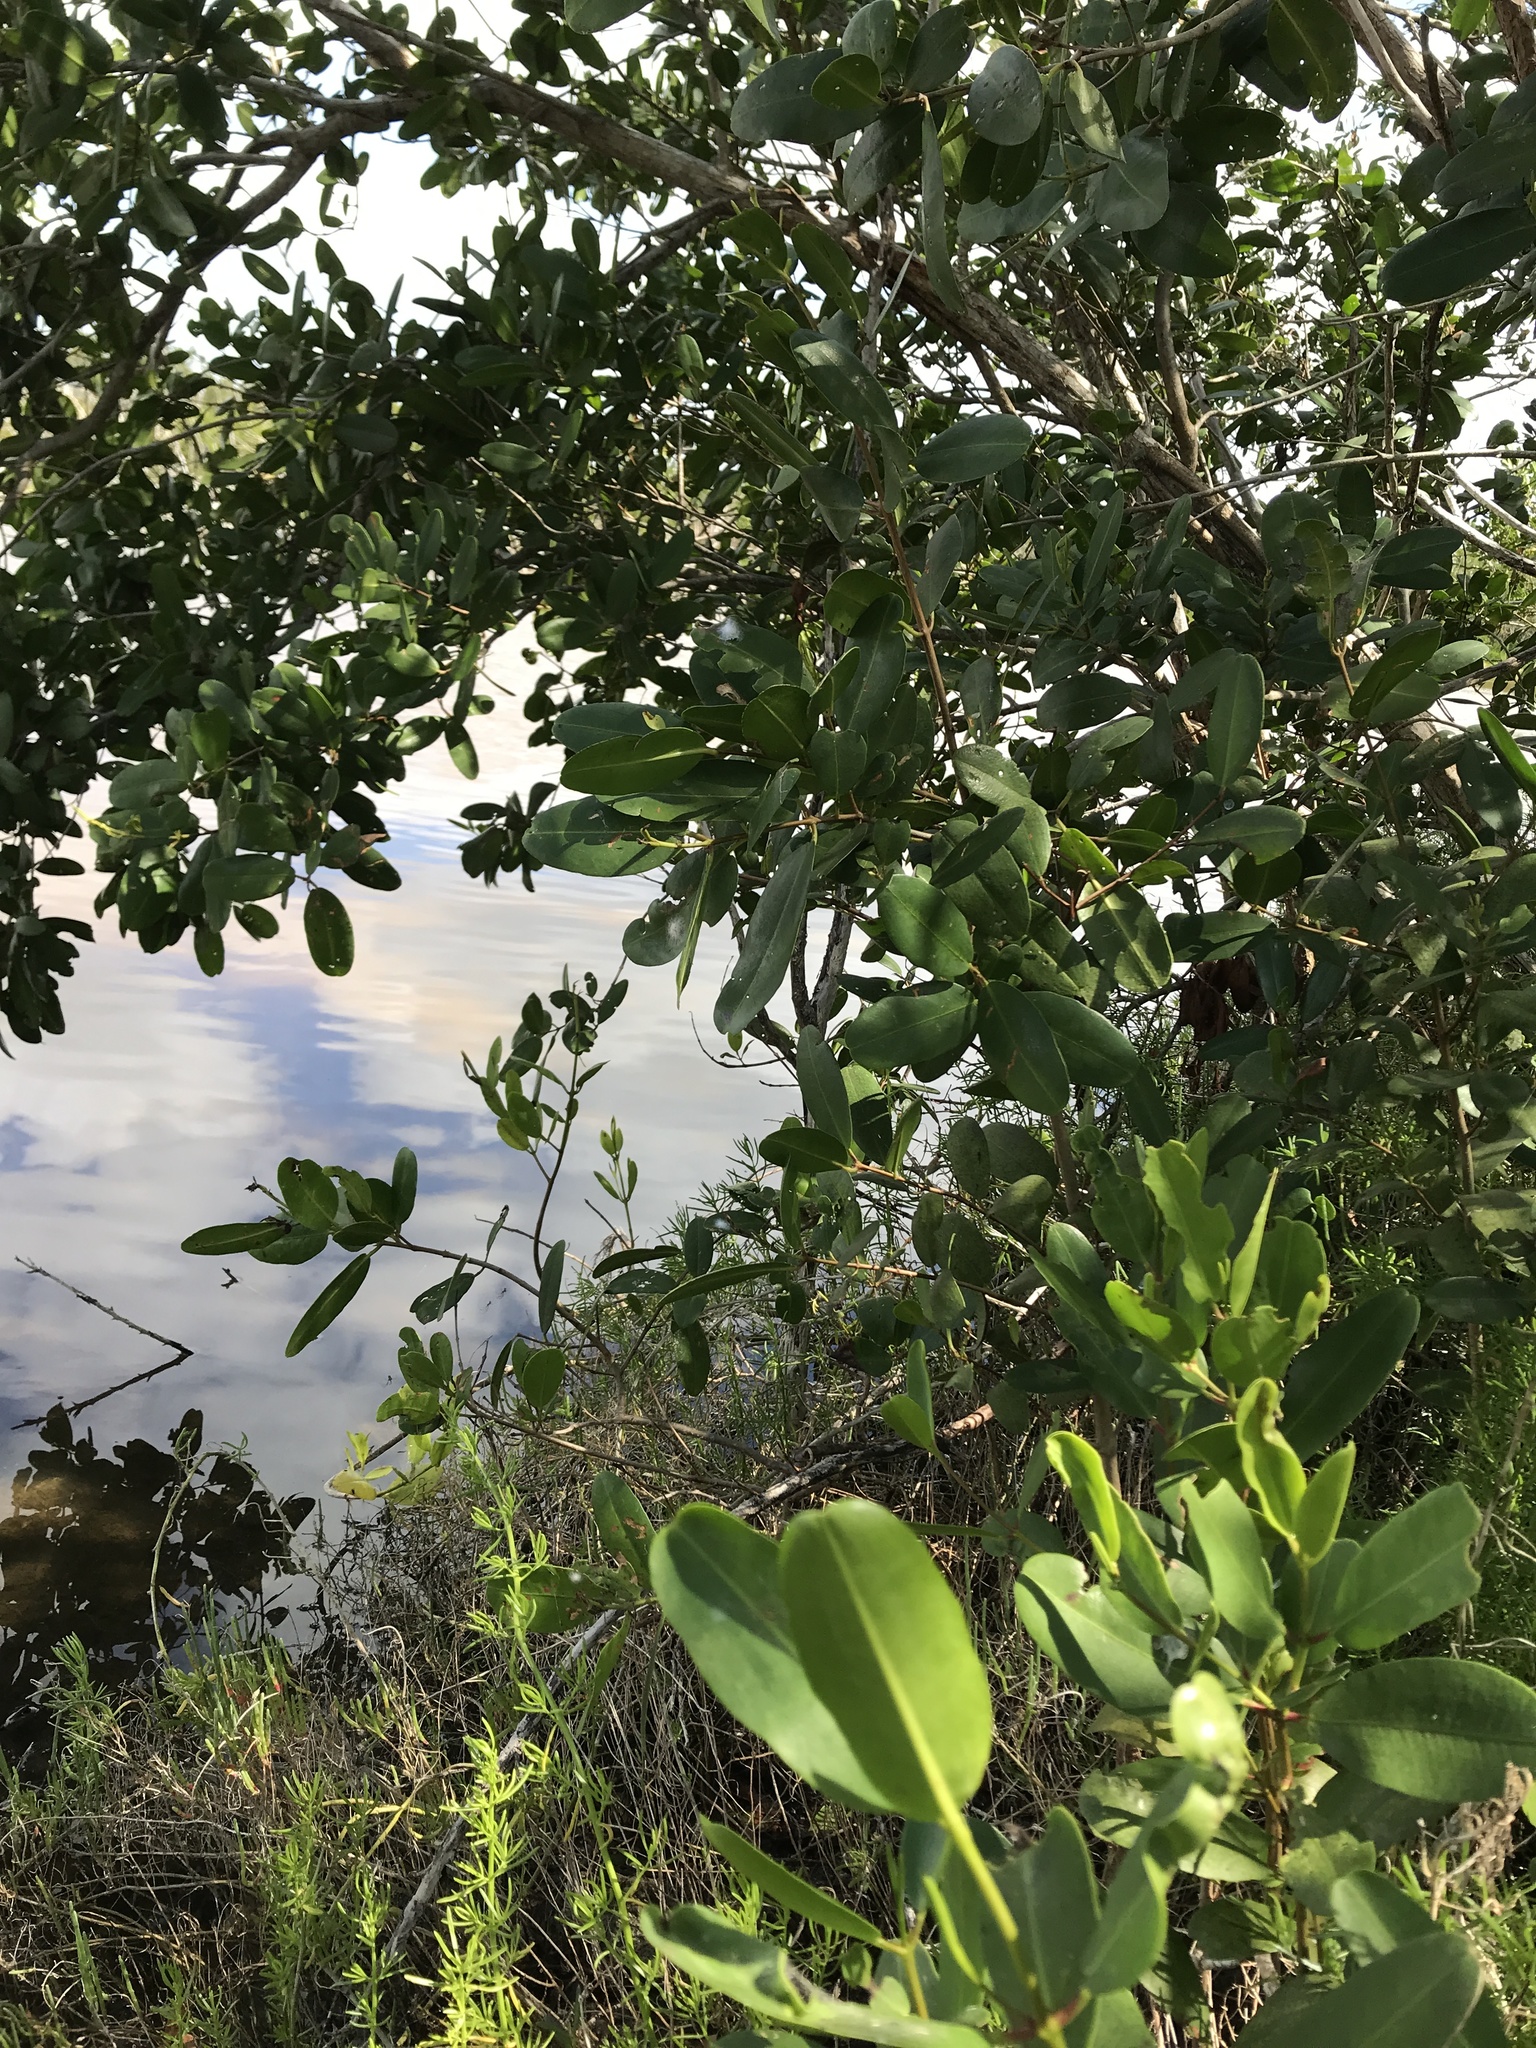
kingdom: Plantae
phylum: Tracheophyta
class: Magnoliopsida
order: Myrtales
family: Combretaceae
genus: Laguncularia
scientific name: Laguncularia racemosa
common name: White mangrove
